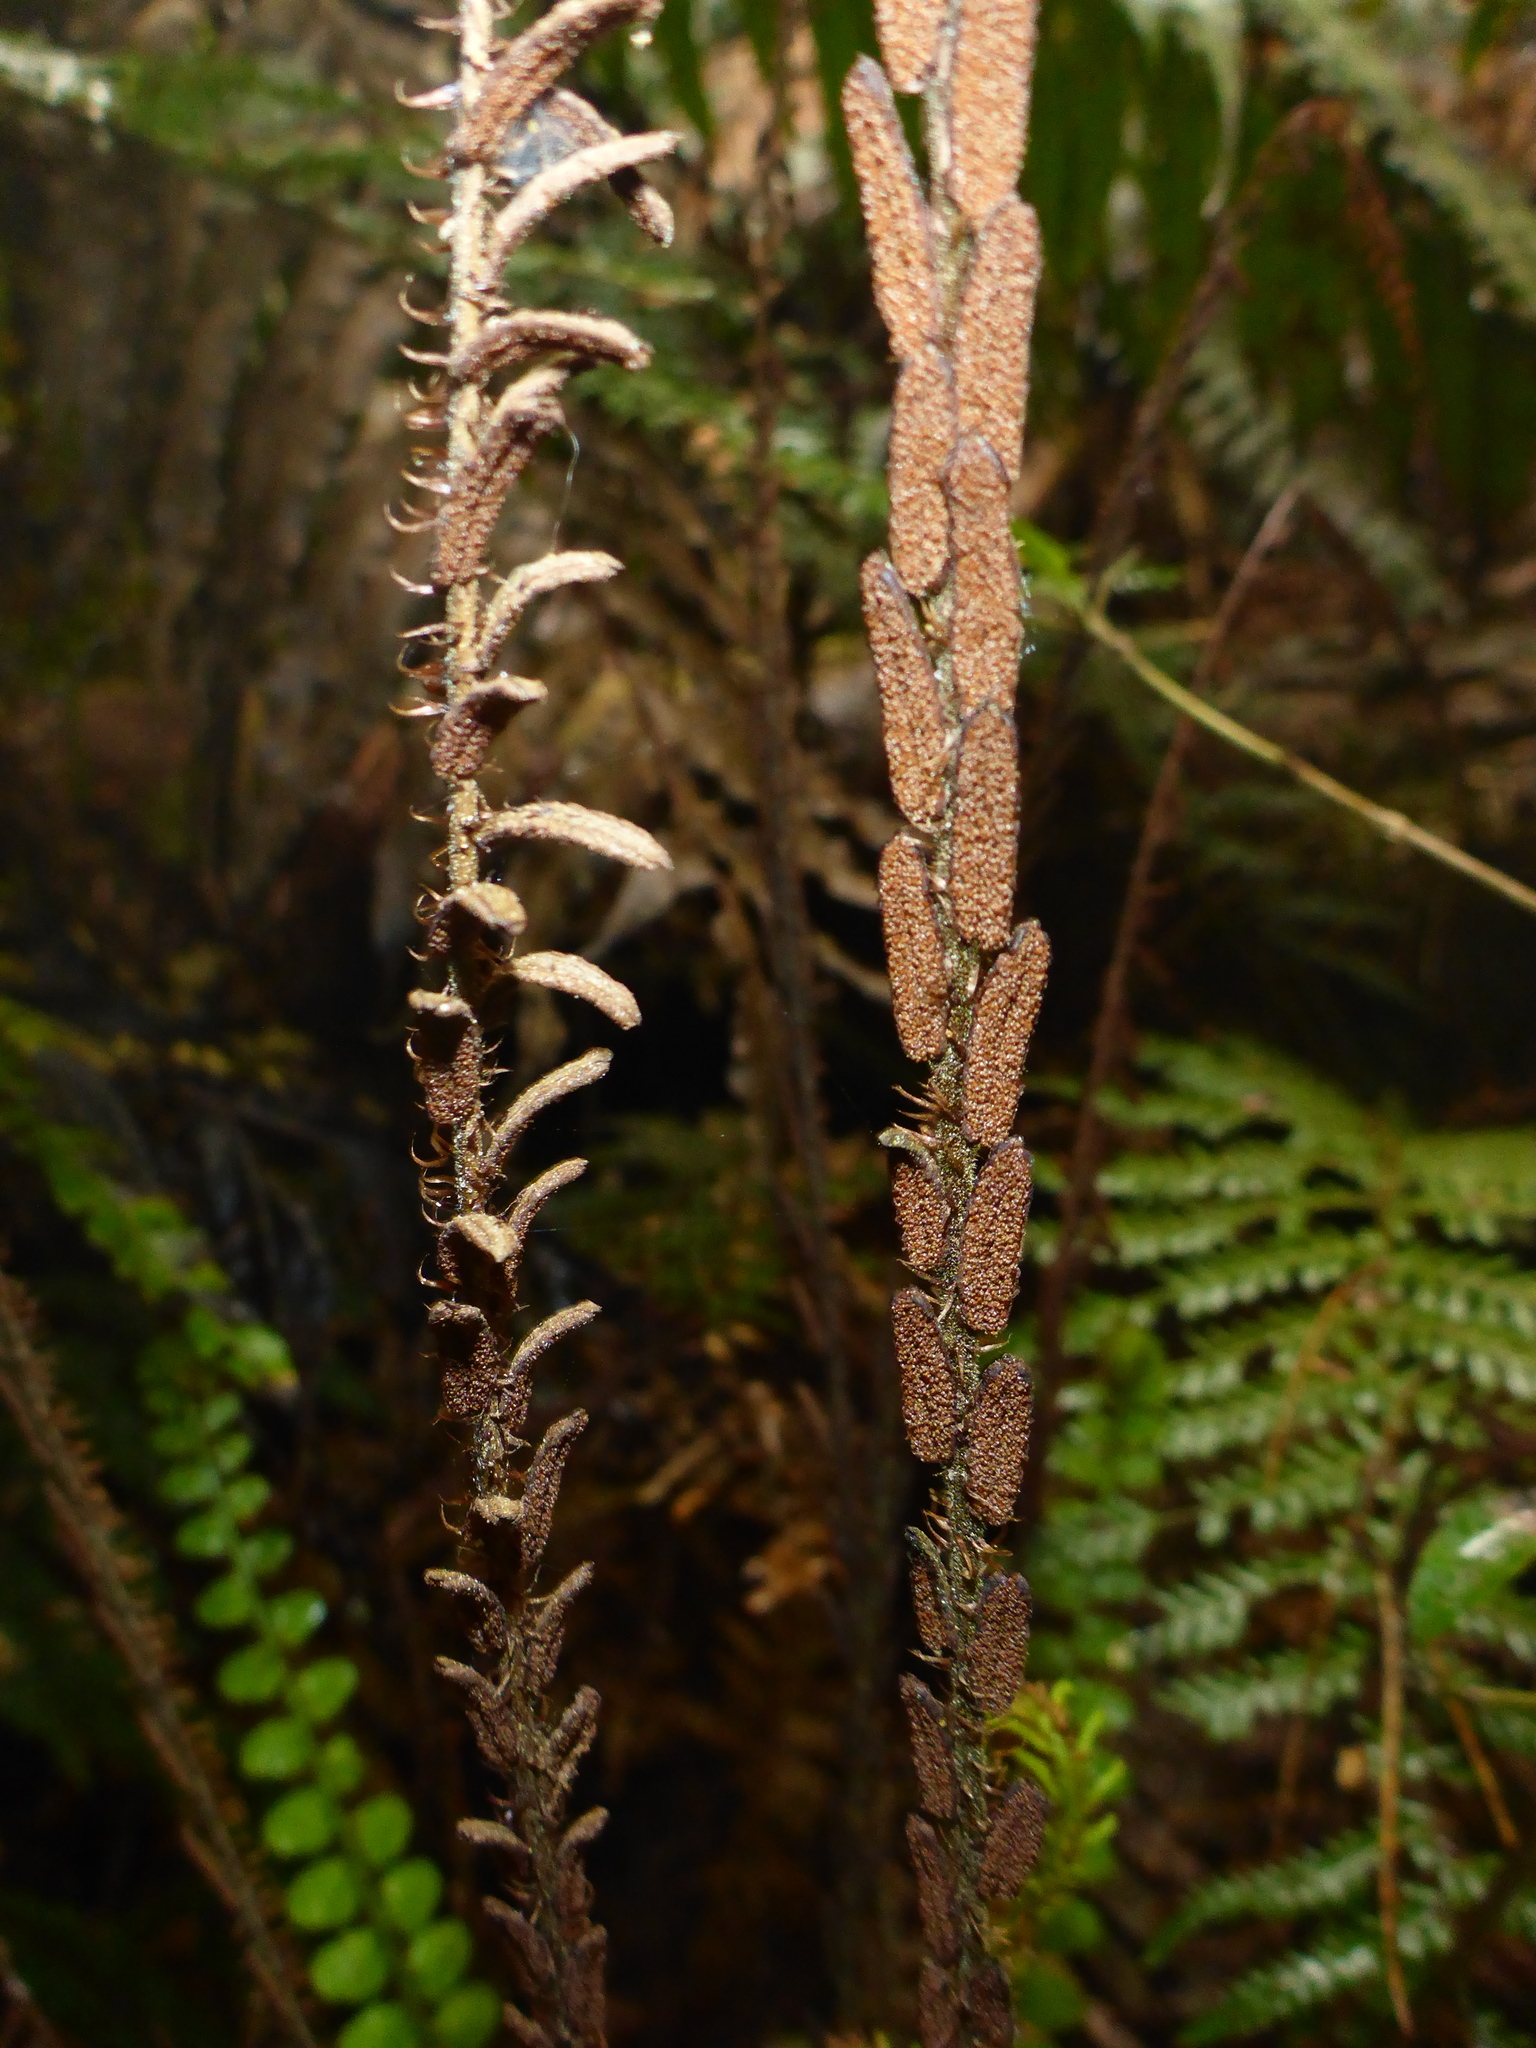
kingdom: Plantae
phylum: Tracheophyta
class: Polypodiopsida
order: Polypodiales
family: Blechnaceae
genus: Cranfillia
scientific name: Cranfillia fluviatilis
